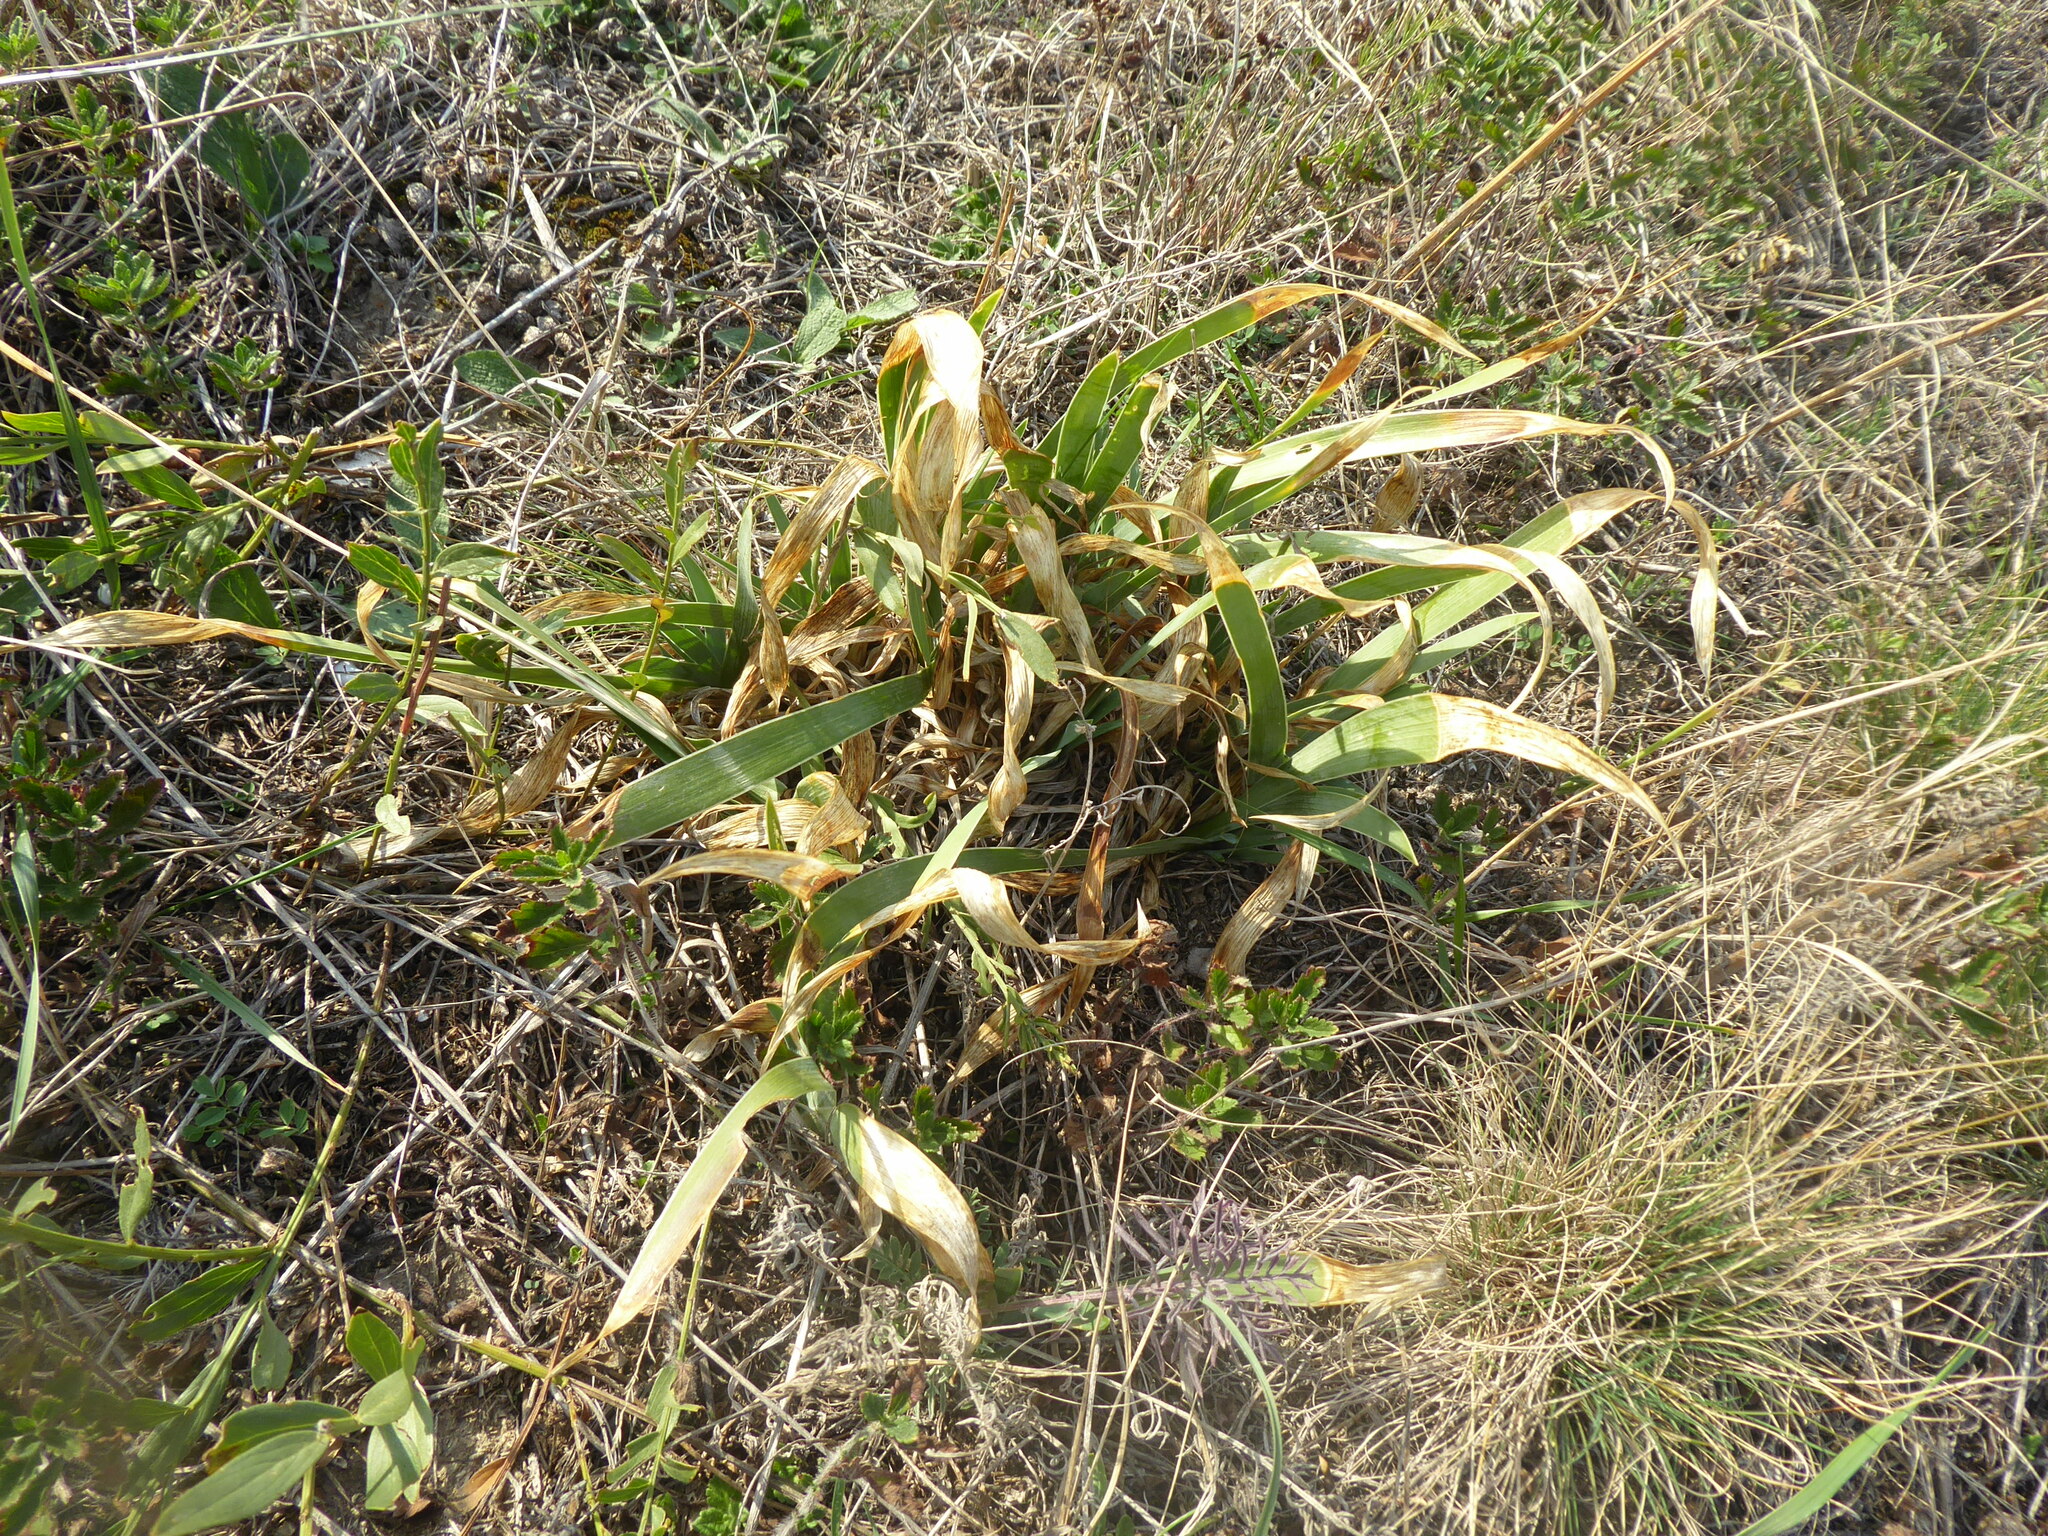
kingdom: Plantae
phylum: Tracheophyta
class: Liliopsida
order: Asparagales
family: Iridaceae
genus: Iris
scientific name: Iris pumila
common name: Dwarf iris
